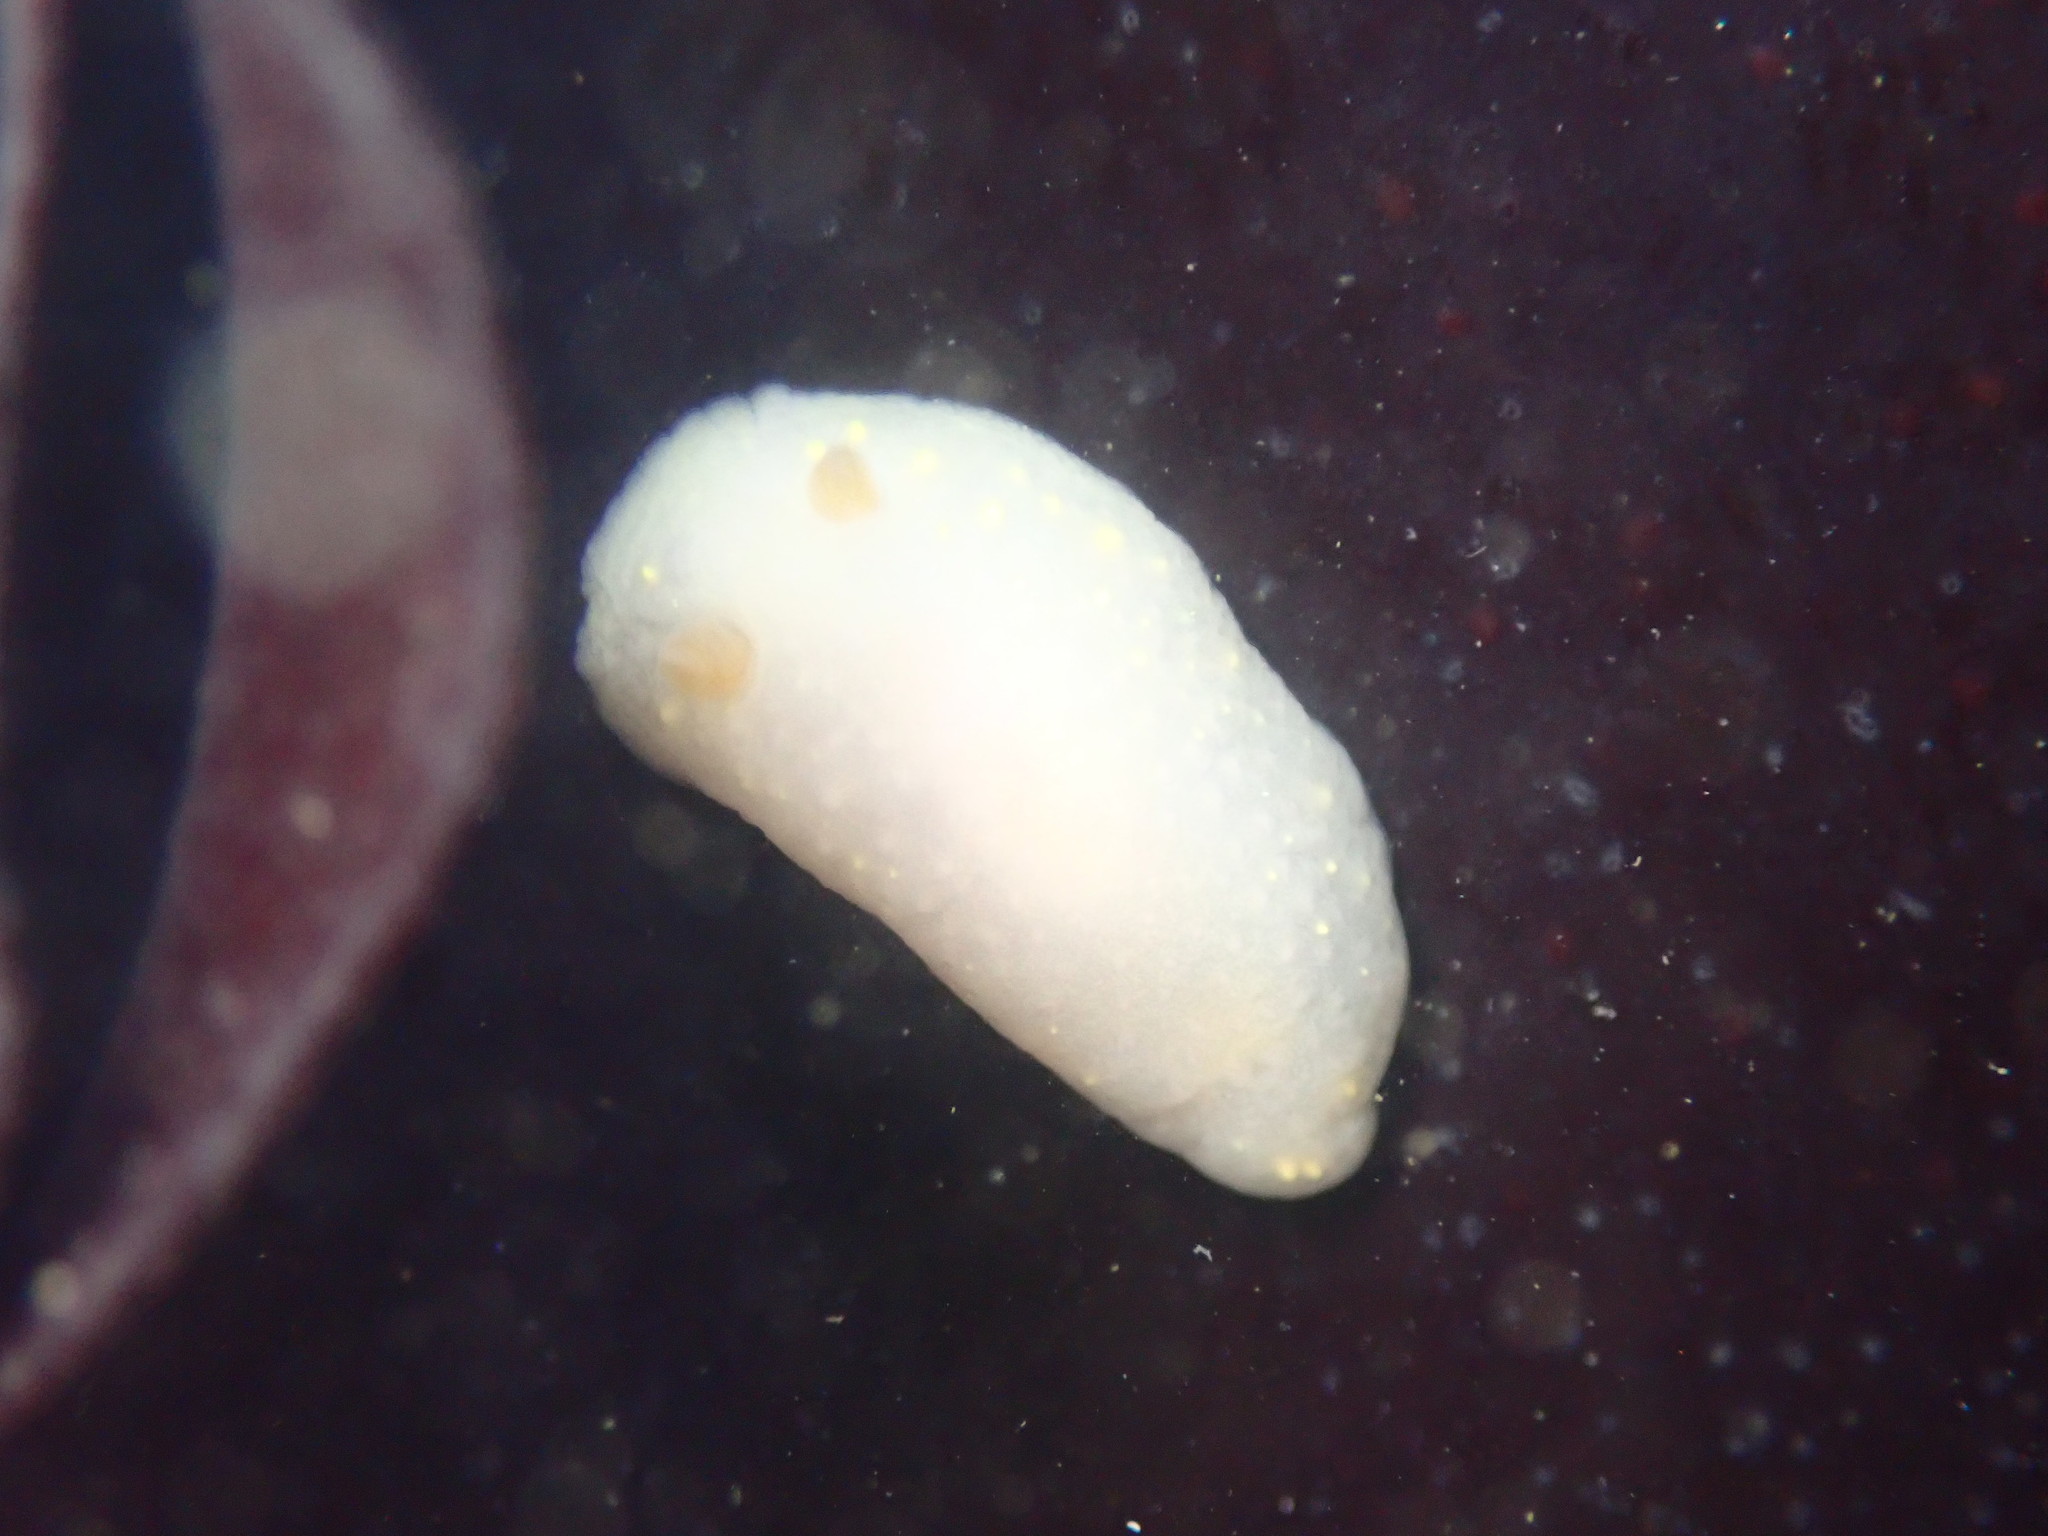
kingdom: Animalia
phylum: Mollusca
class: Gastropoda
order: Nudibranchia
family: Cadlinidae
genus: Cadlina
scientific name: Cadlina modesta
